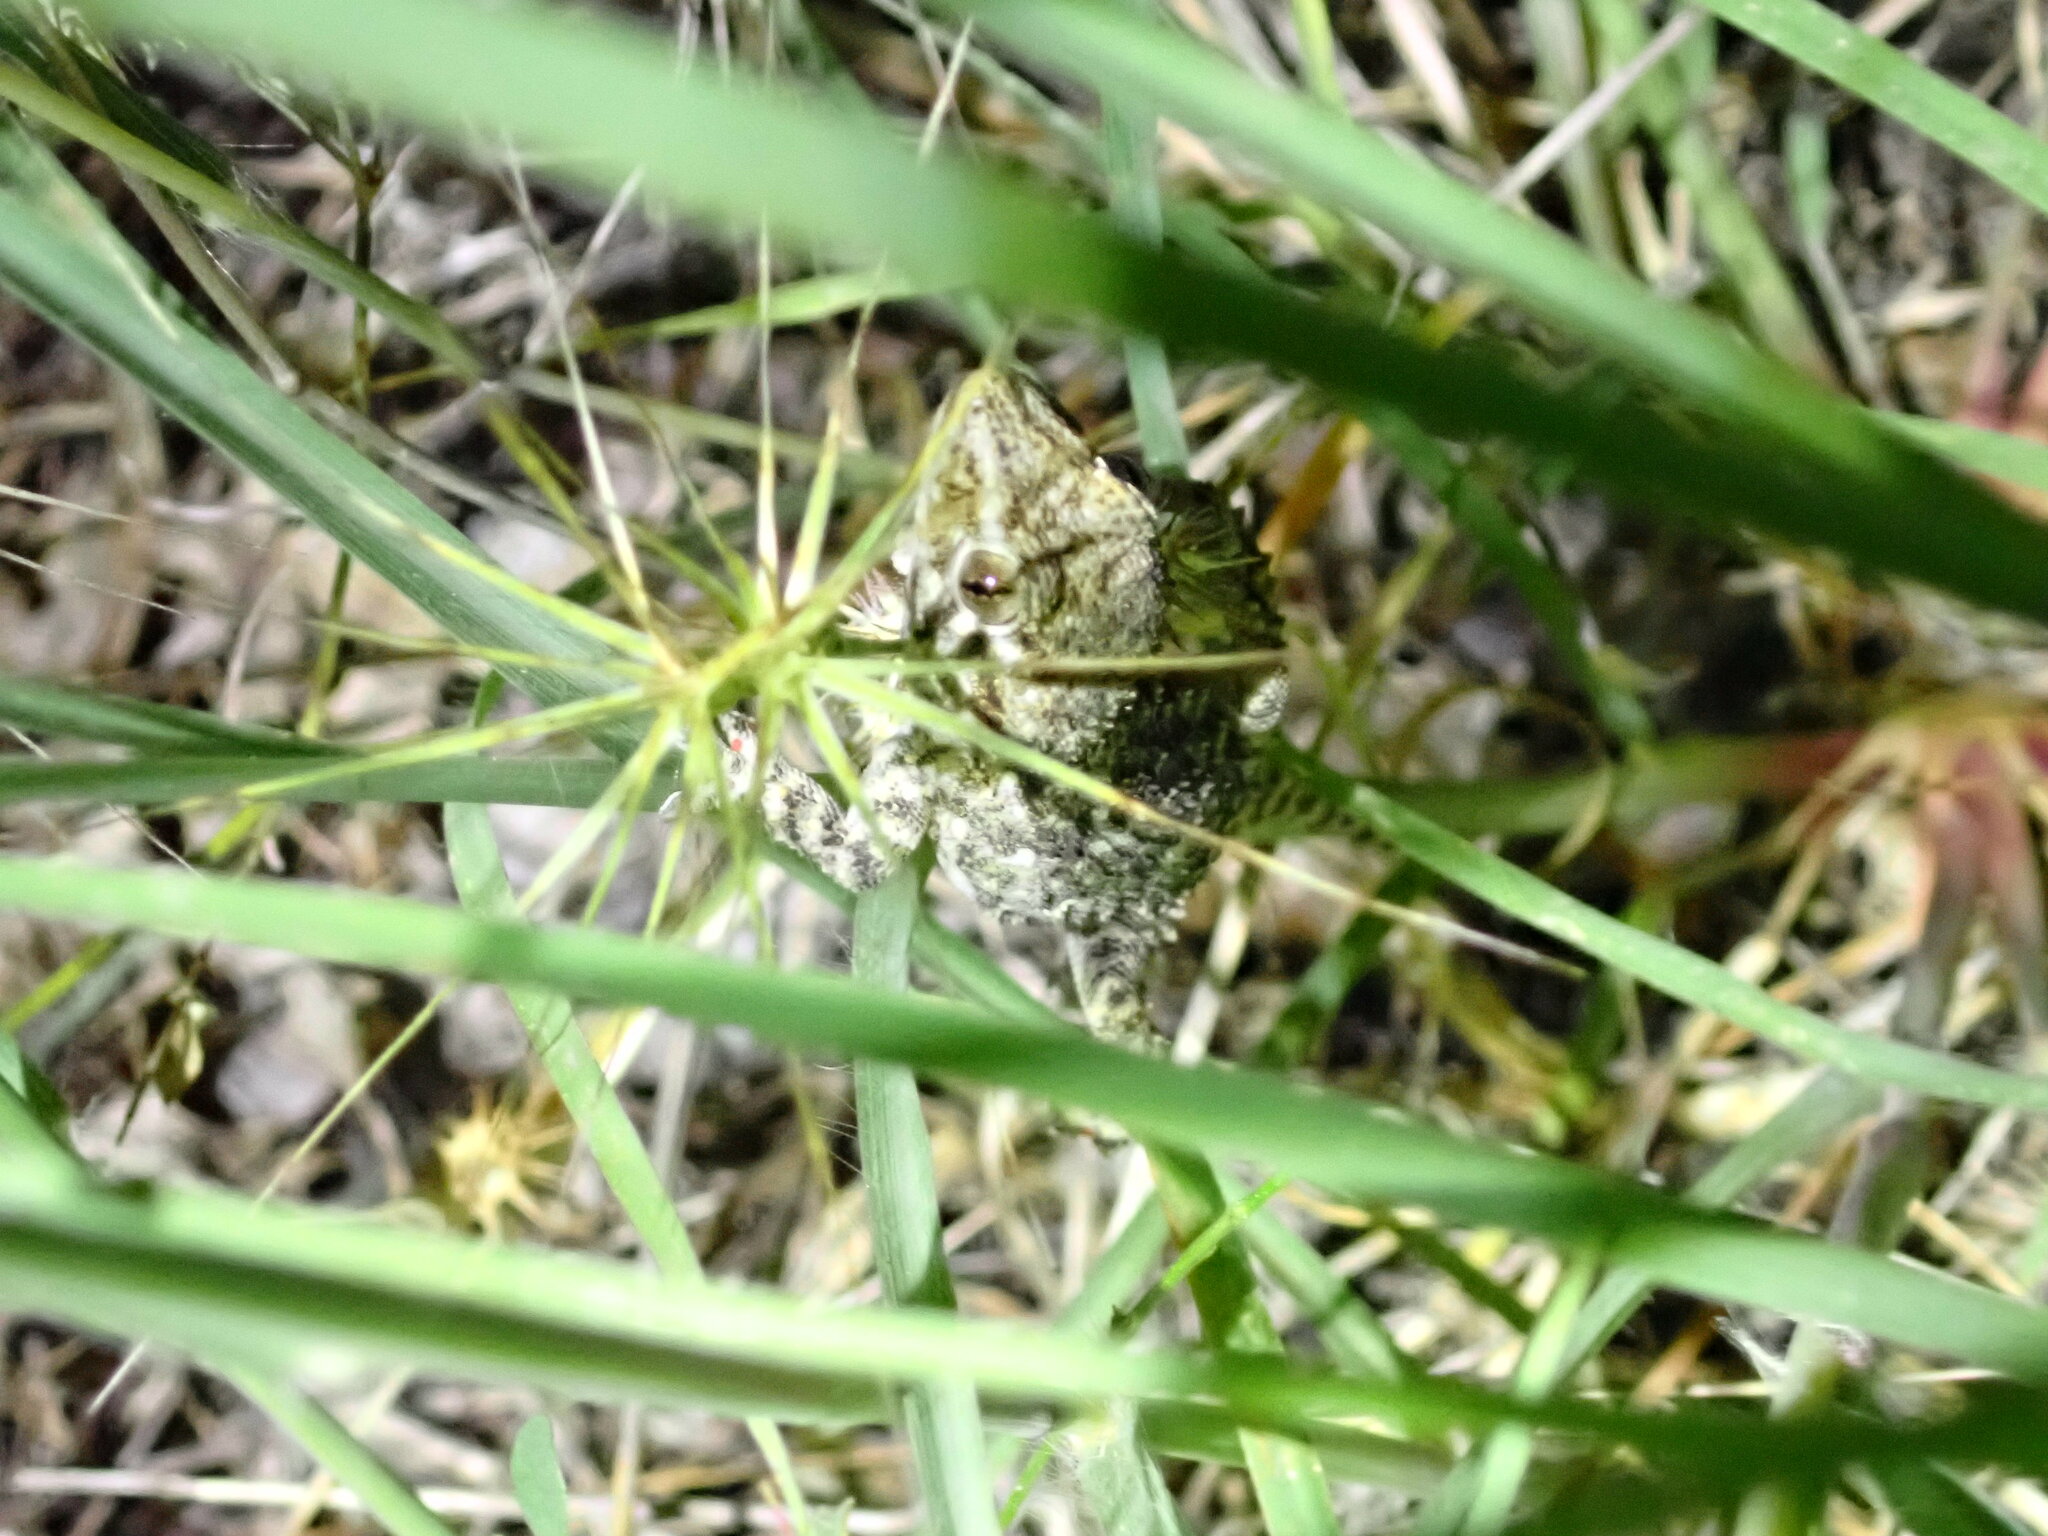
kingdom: Animalia
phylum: Chordata
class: Squamata
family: Phyllodactylidae
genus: Tarentola
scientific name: Tarentola mauritanica
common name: Moorish gecko
